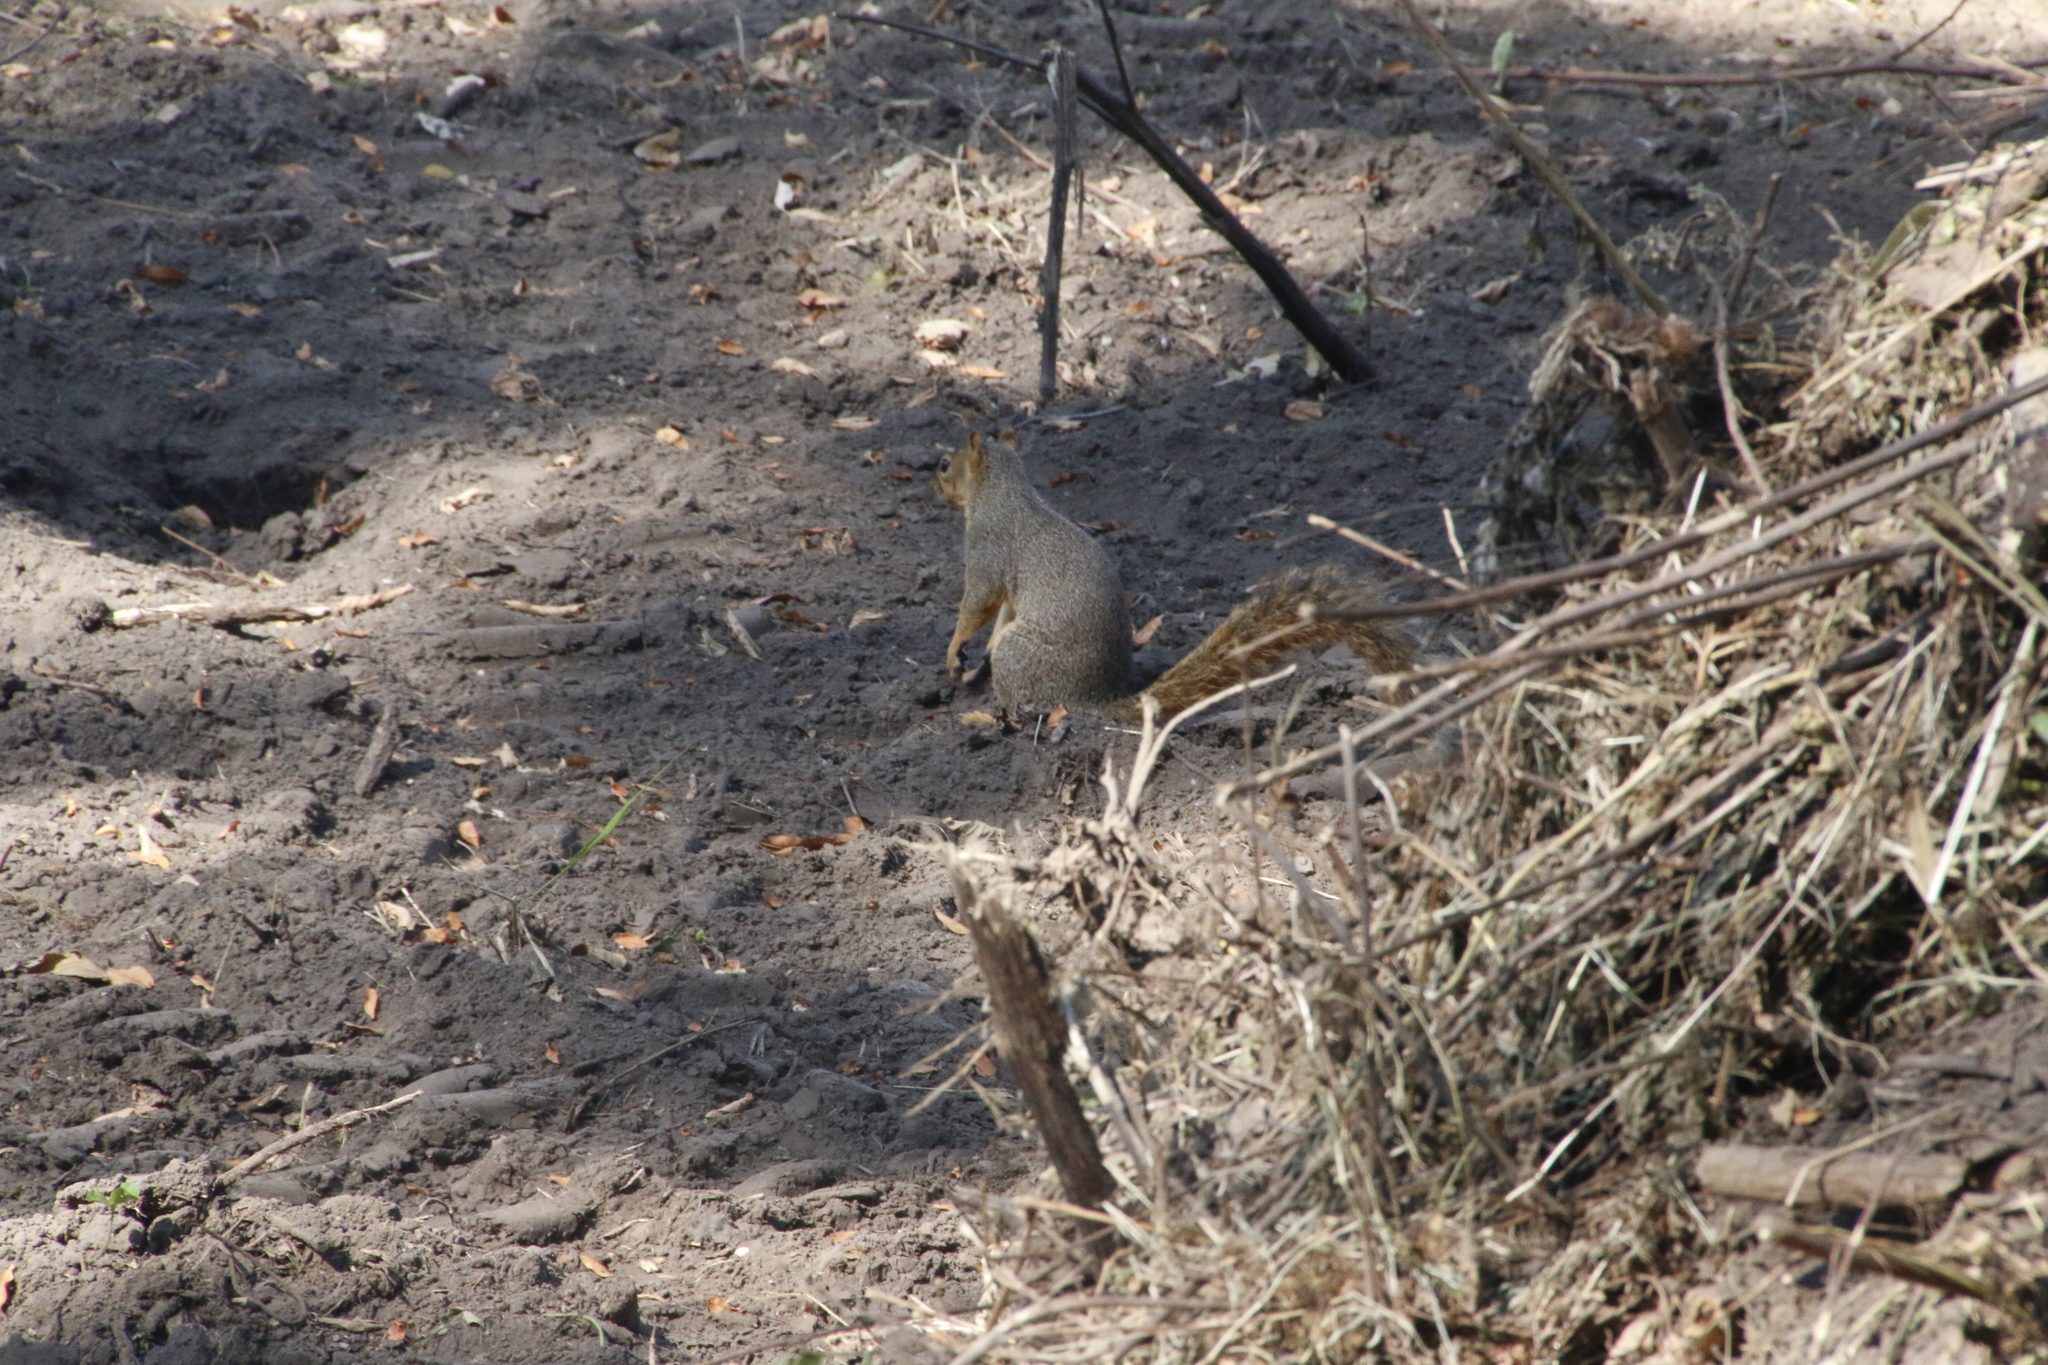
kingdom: Animalia
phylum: Chordata
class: Mammalia
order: Rodentia
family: Sciuridae
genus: Sciurus
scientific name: Sciurus niger
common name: Fox squirrel
